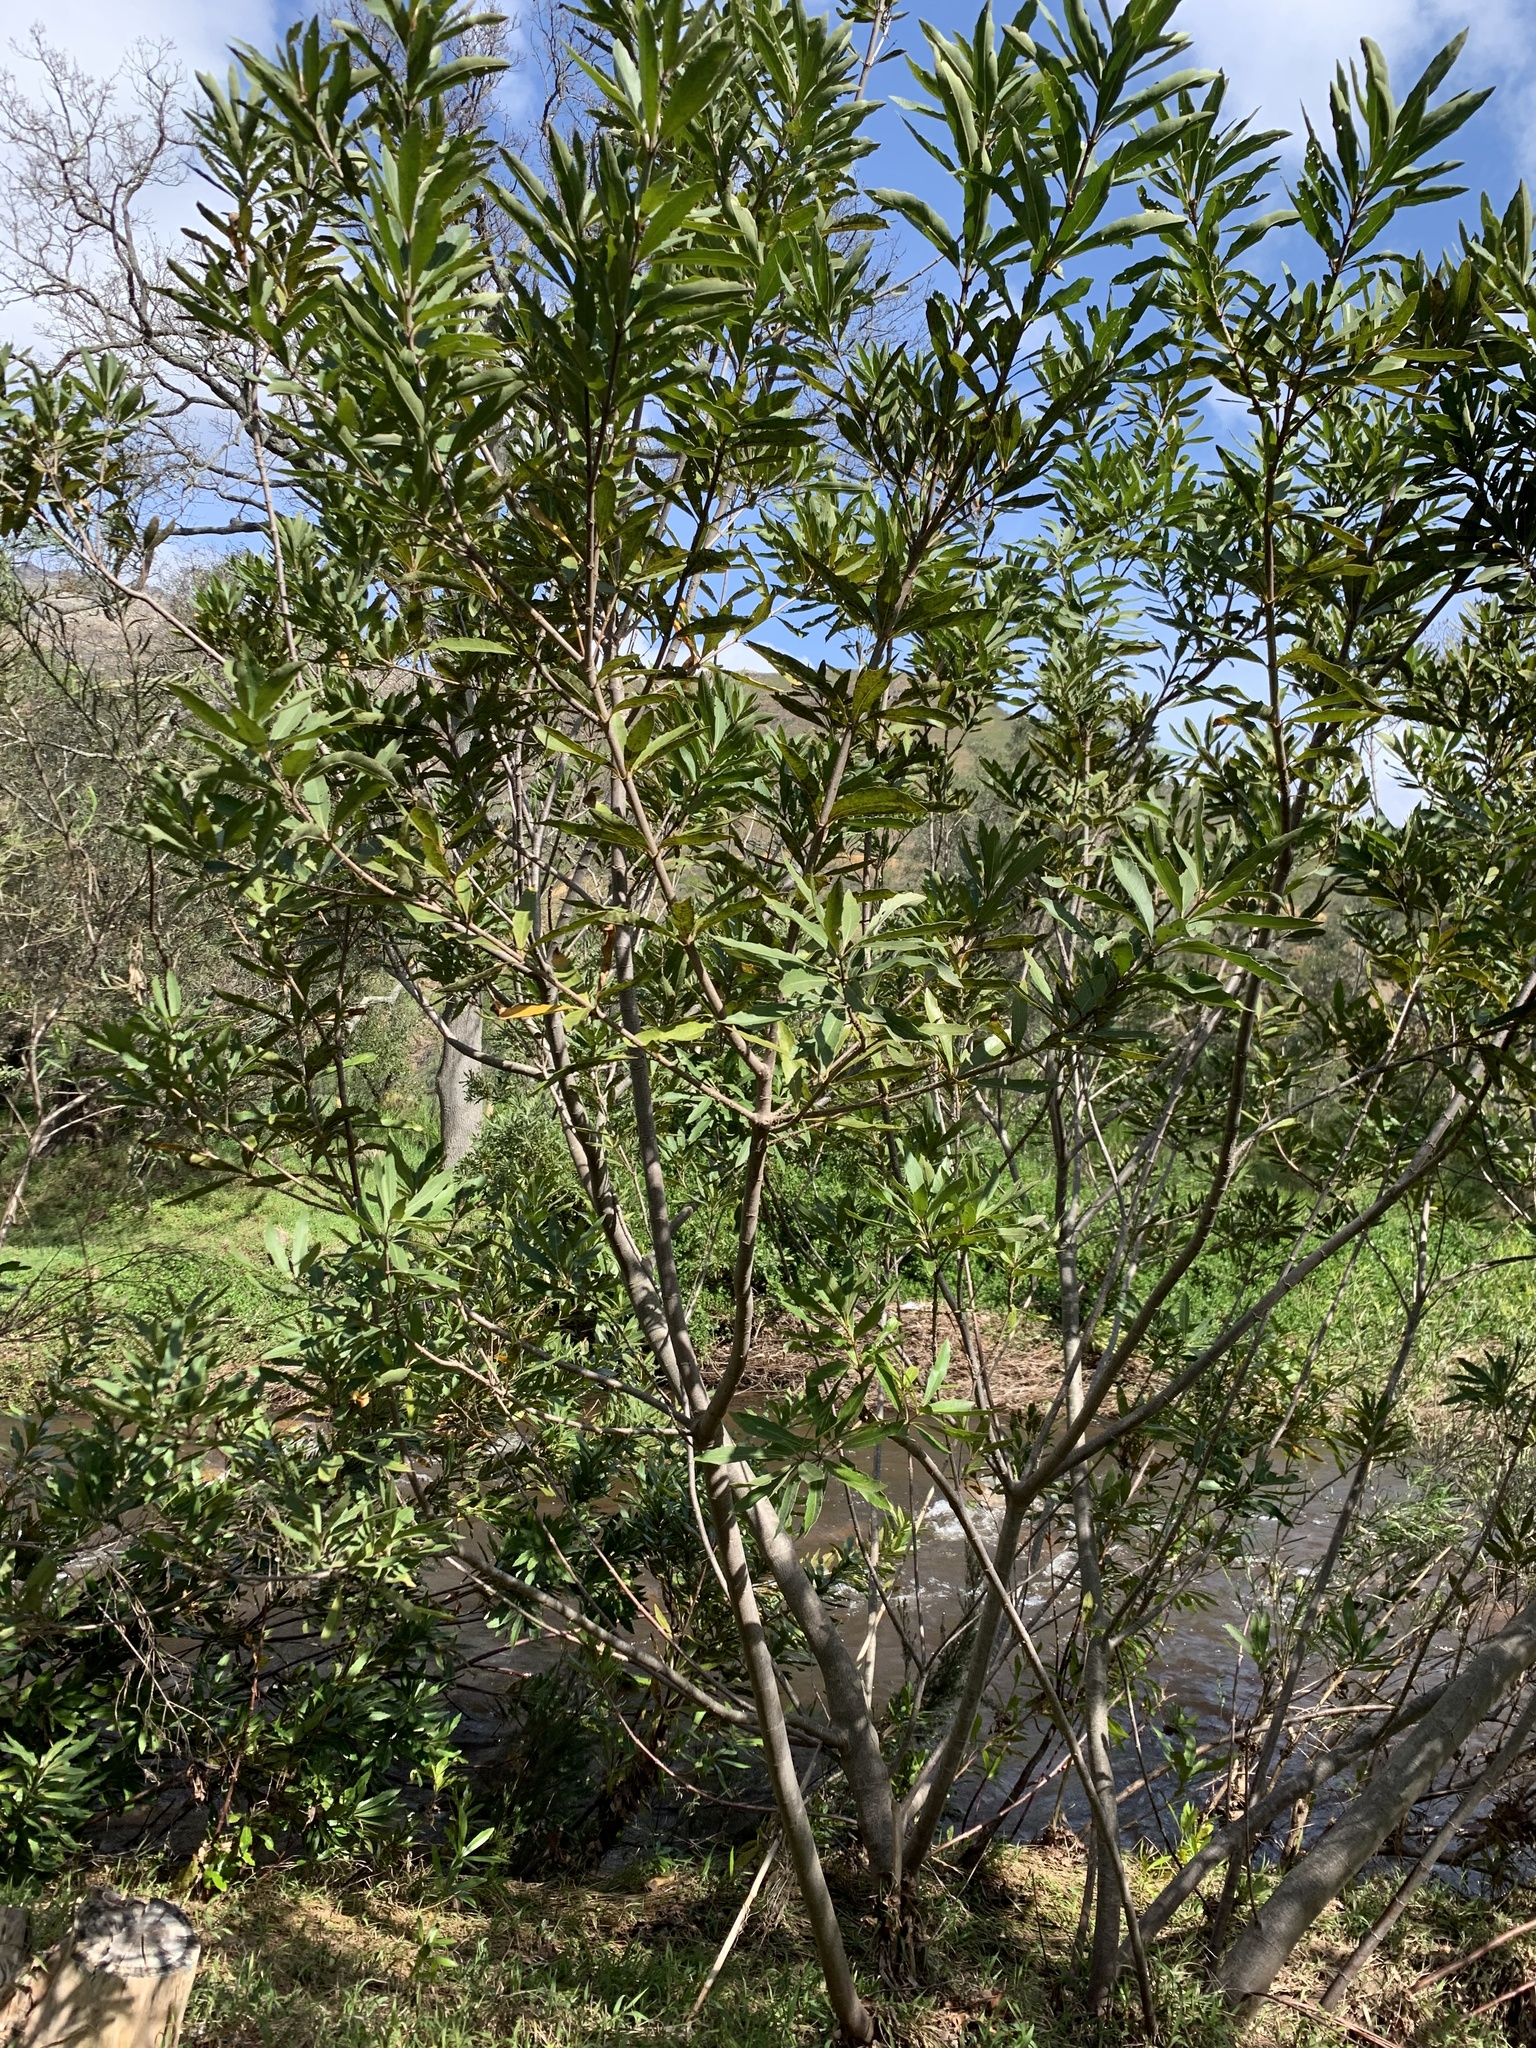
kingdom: Plantae
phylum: Tracheophyta
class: Magnoliopsida
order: Proteales
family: Proteaceae
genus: Brabejum
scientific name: Brabejum stellatifolium
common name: Wild almond
